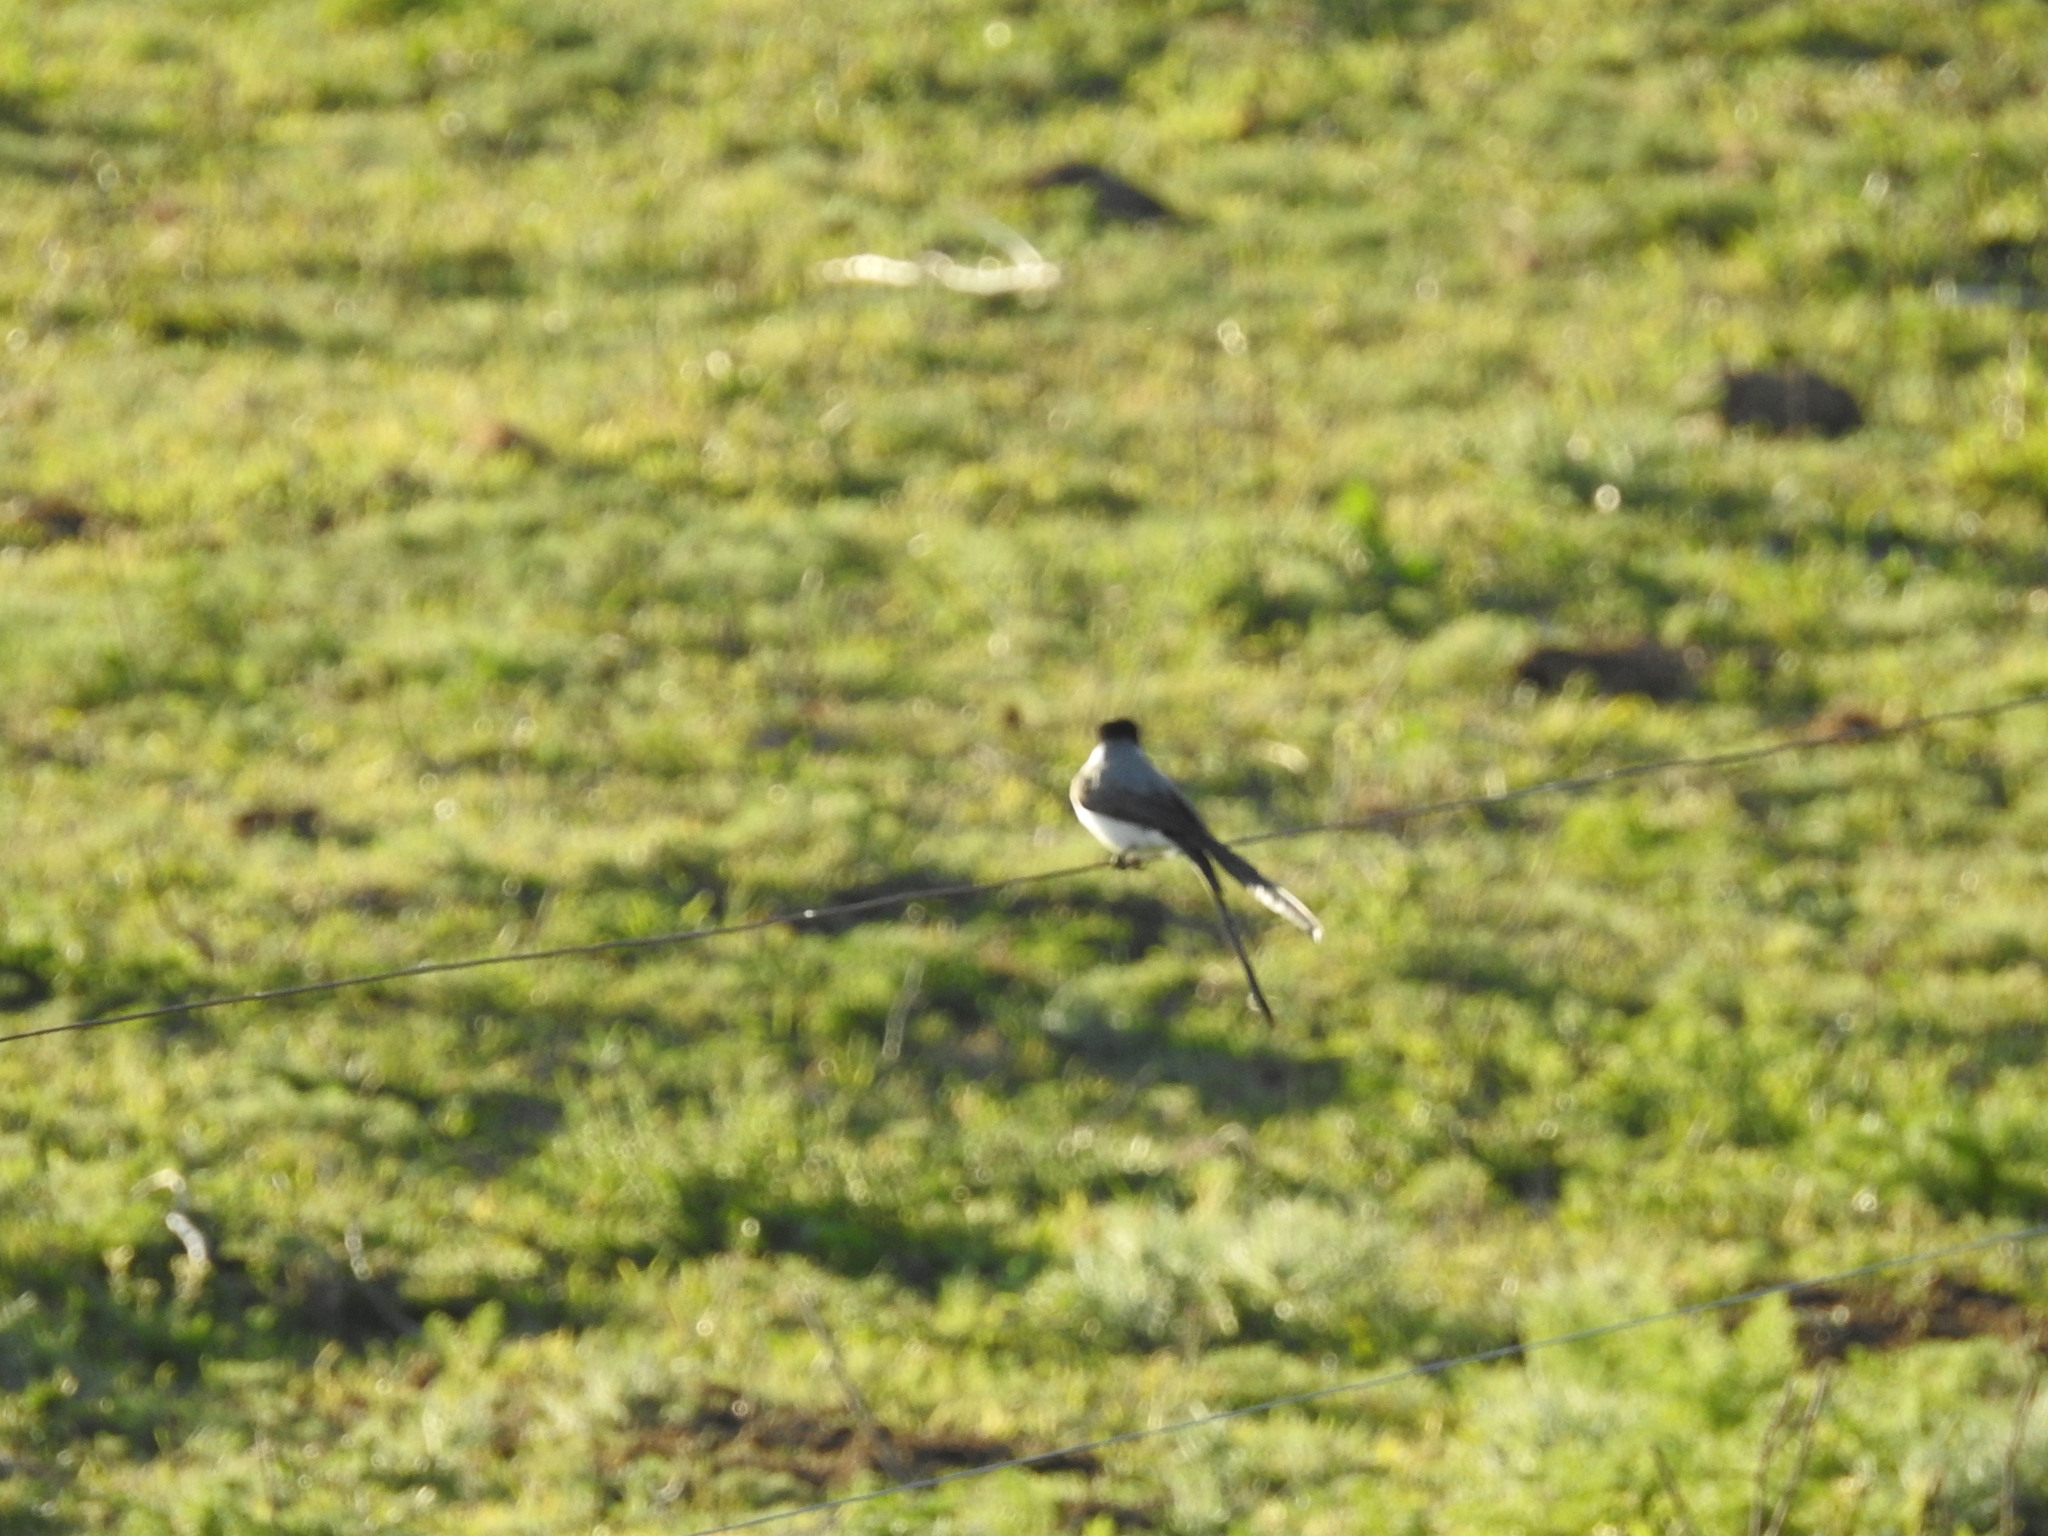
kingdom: Animalia
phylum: Chordata
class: Aves
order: Passeriformes
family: Tyrannidae
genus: Tyrannus
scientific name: Tyrannus savana
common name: Fork-tailed flycatcher
